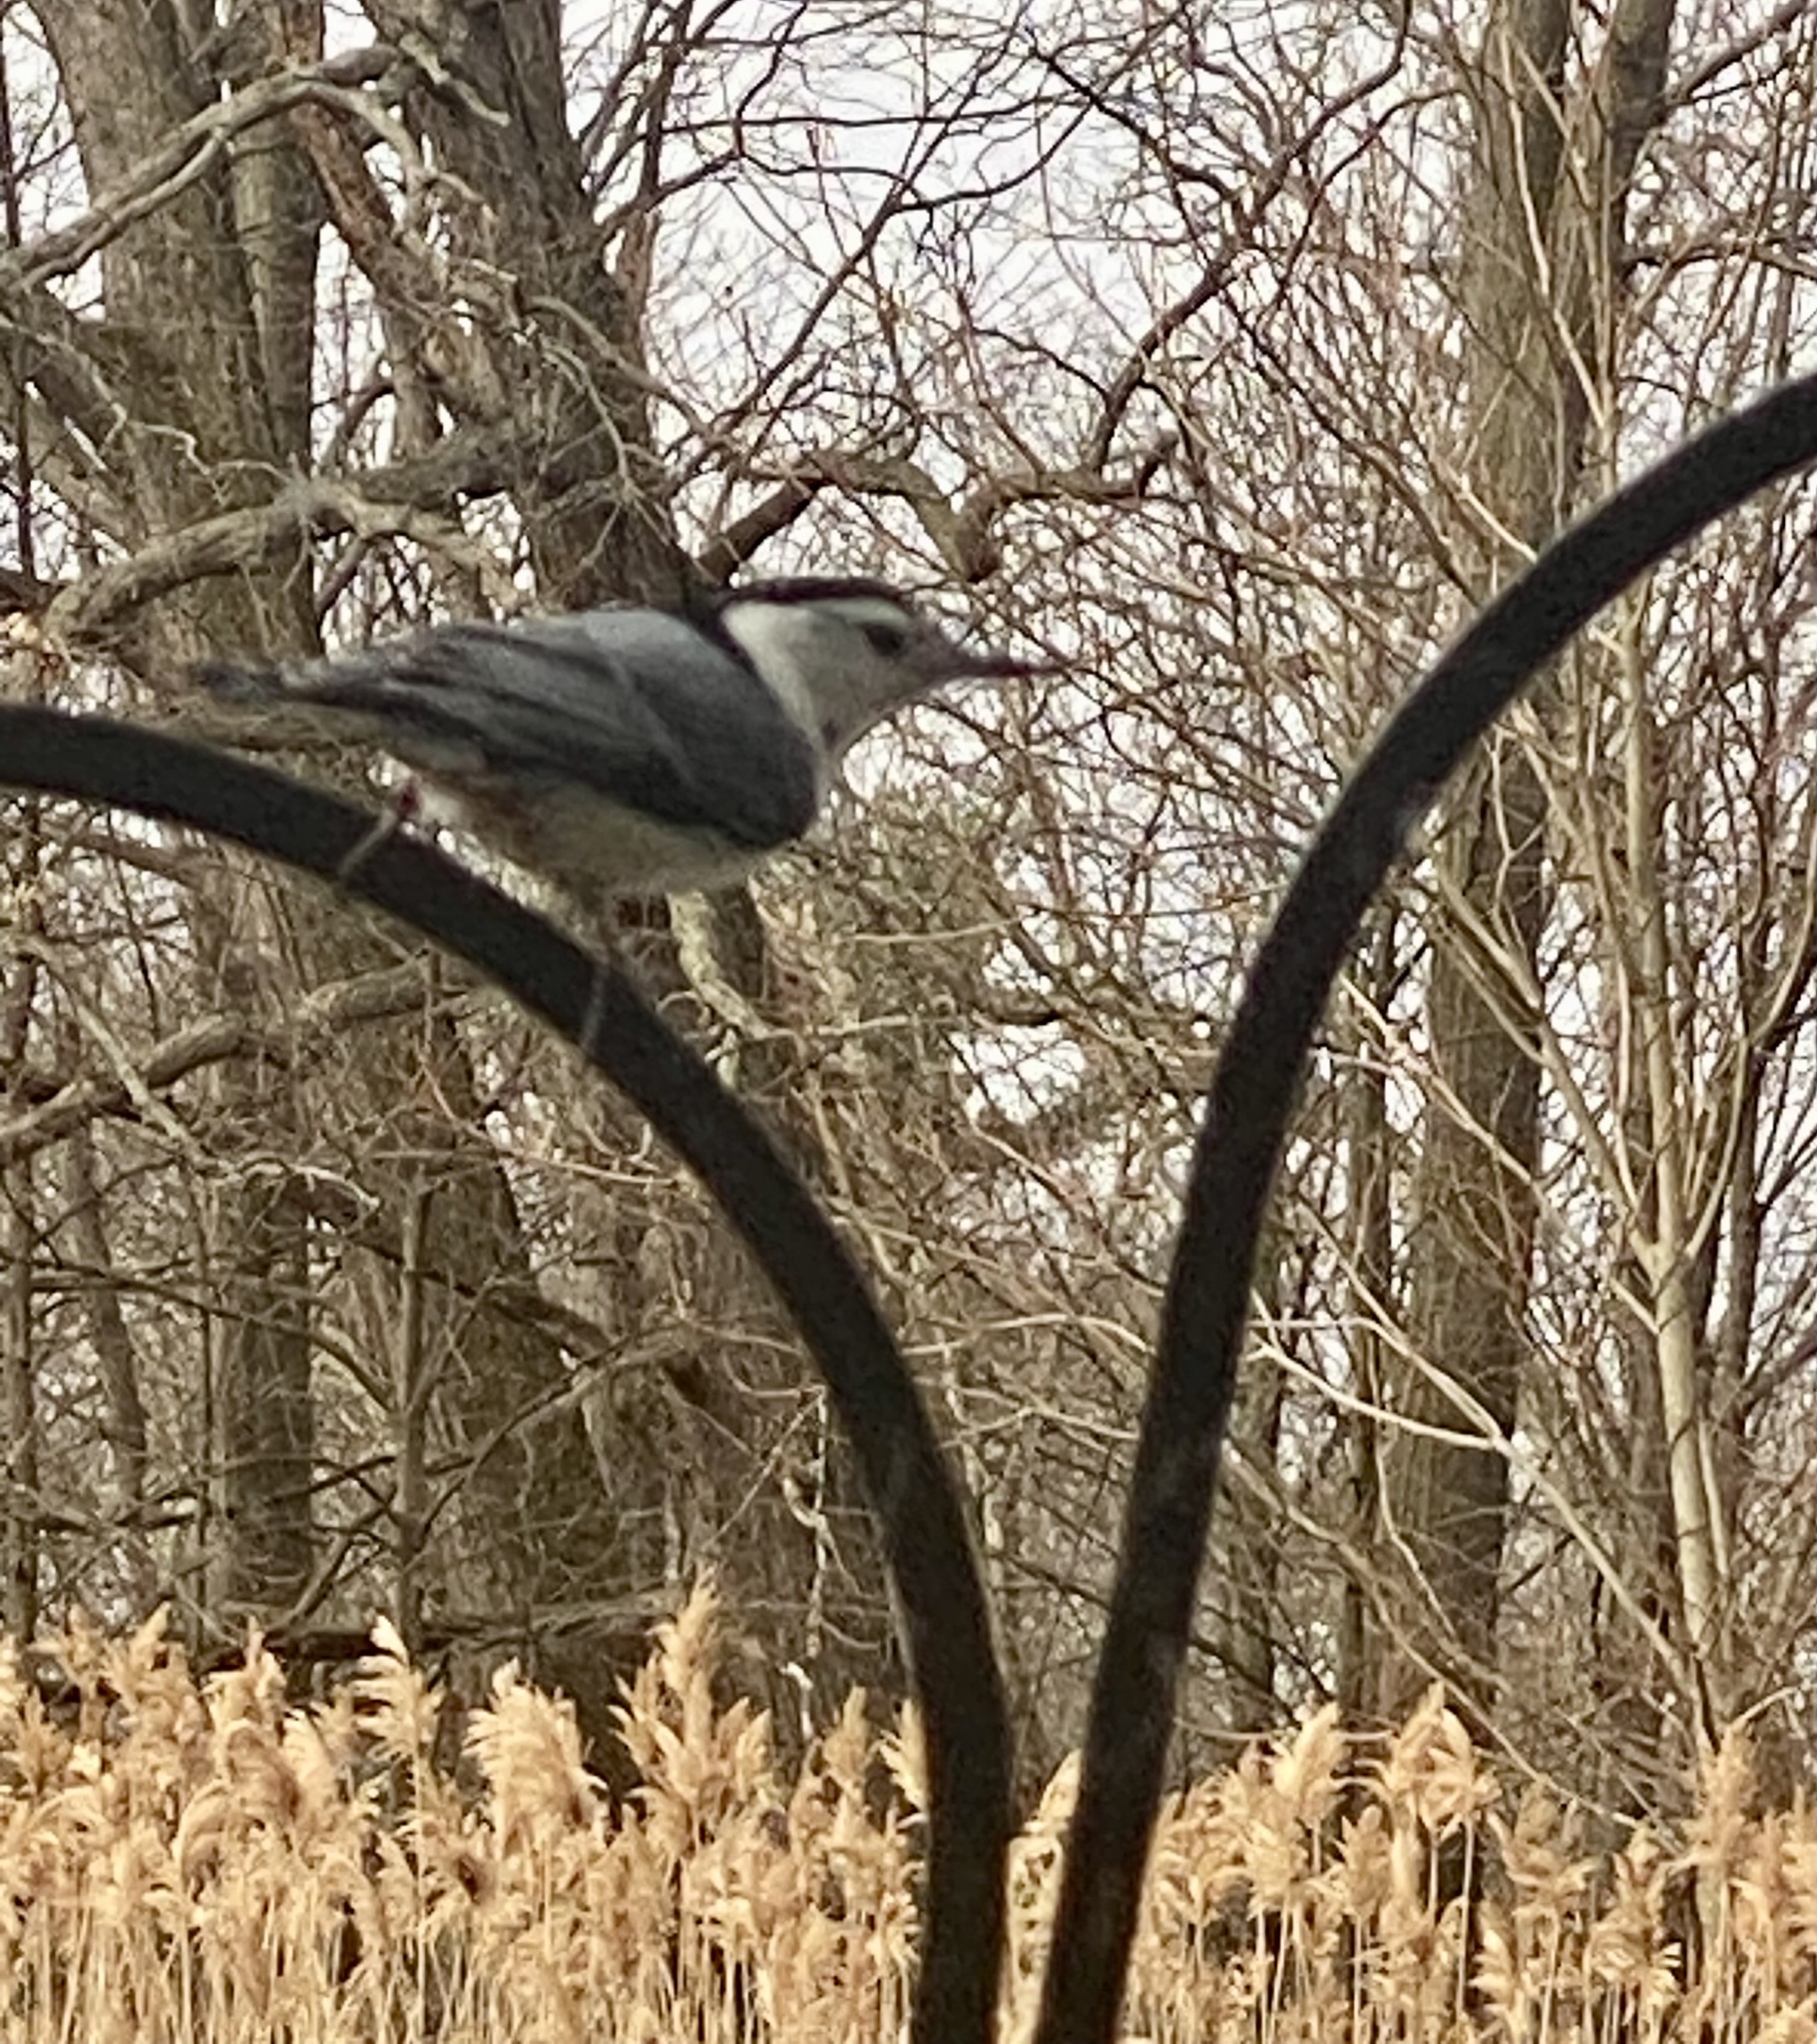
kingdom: Animalia
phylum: Chordata
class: Aves
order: Passeriformes
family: Sittidae
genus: Sitta
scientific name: Sitta carolinensis
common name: White-breasted nuthatch
